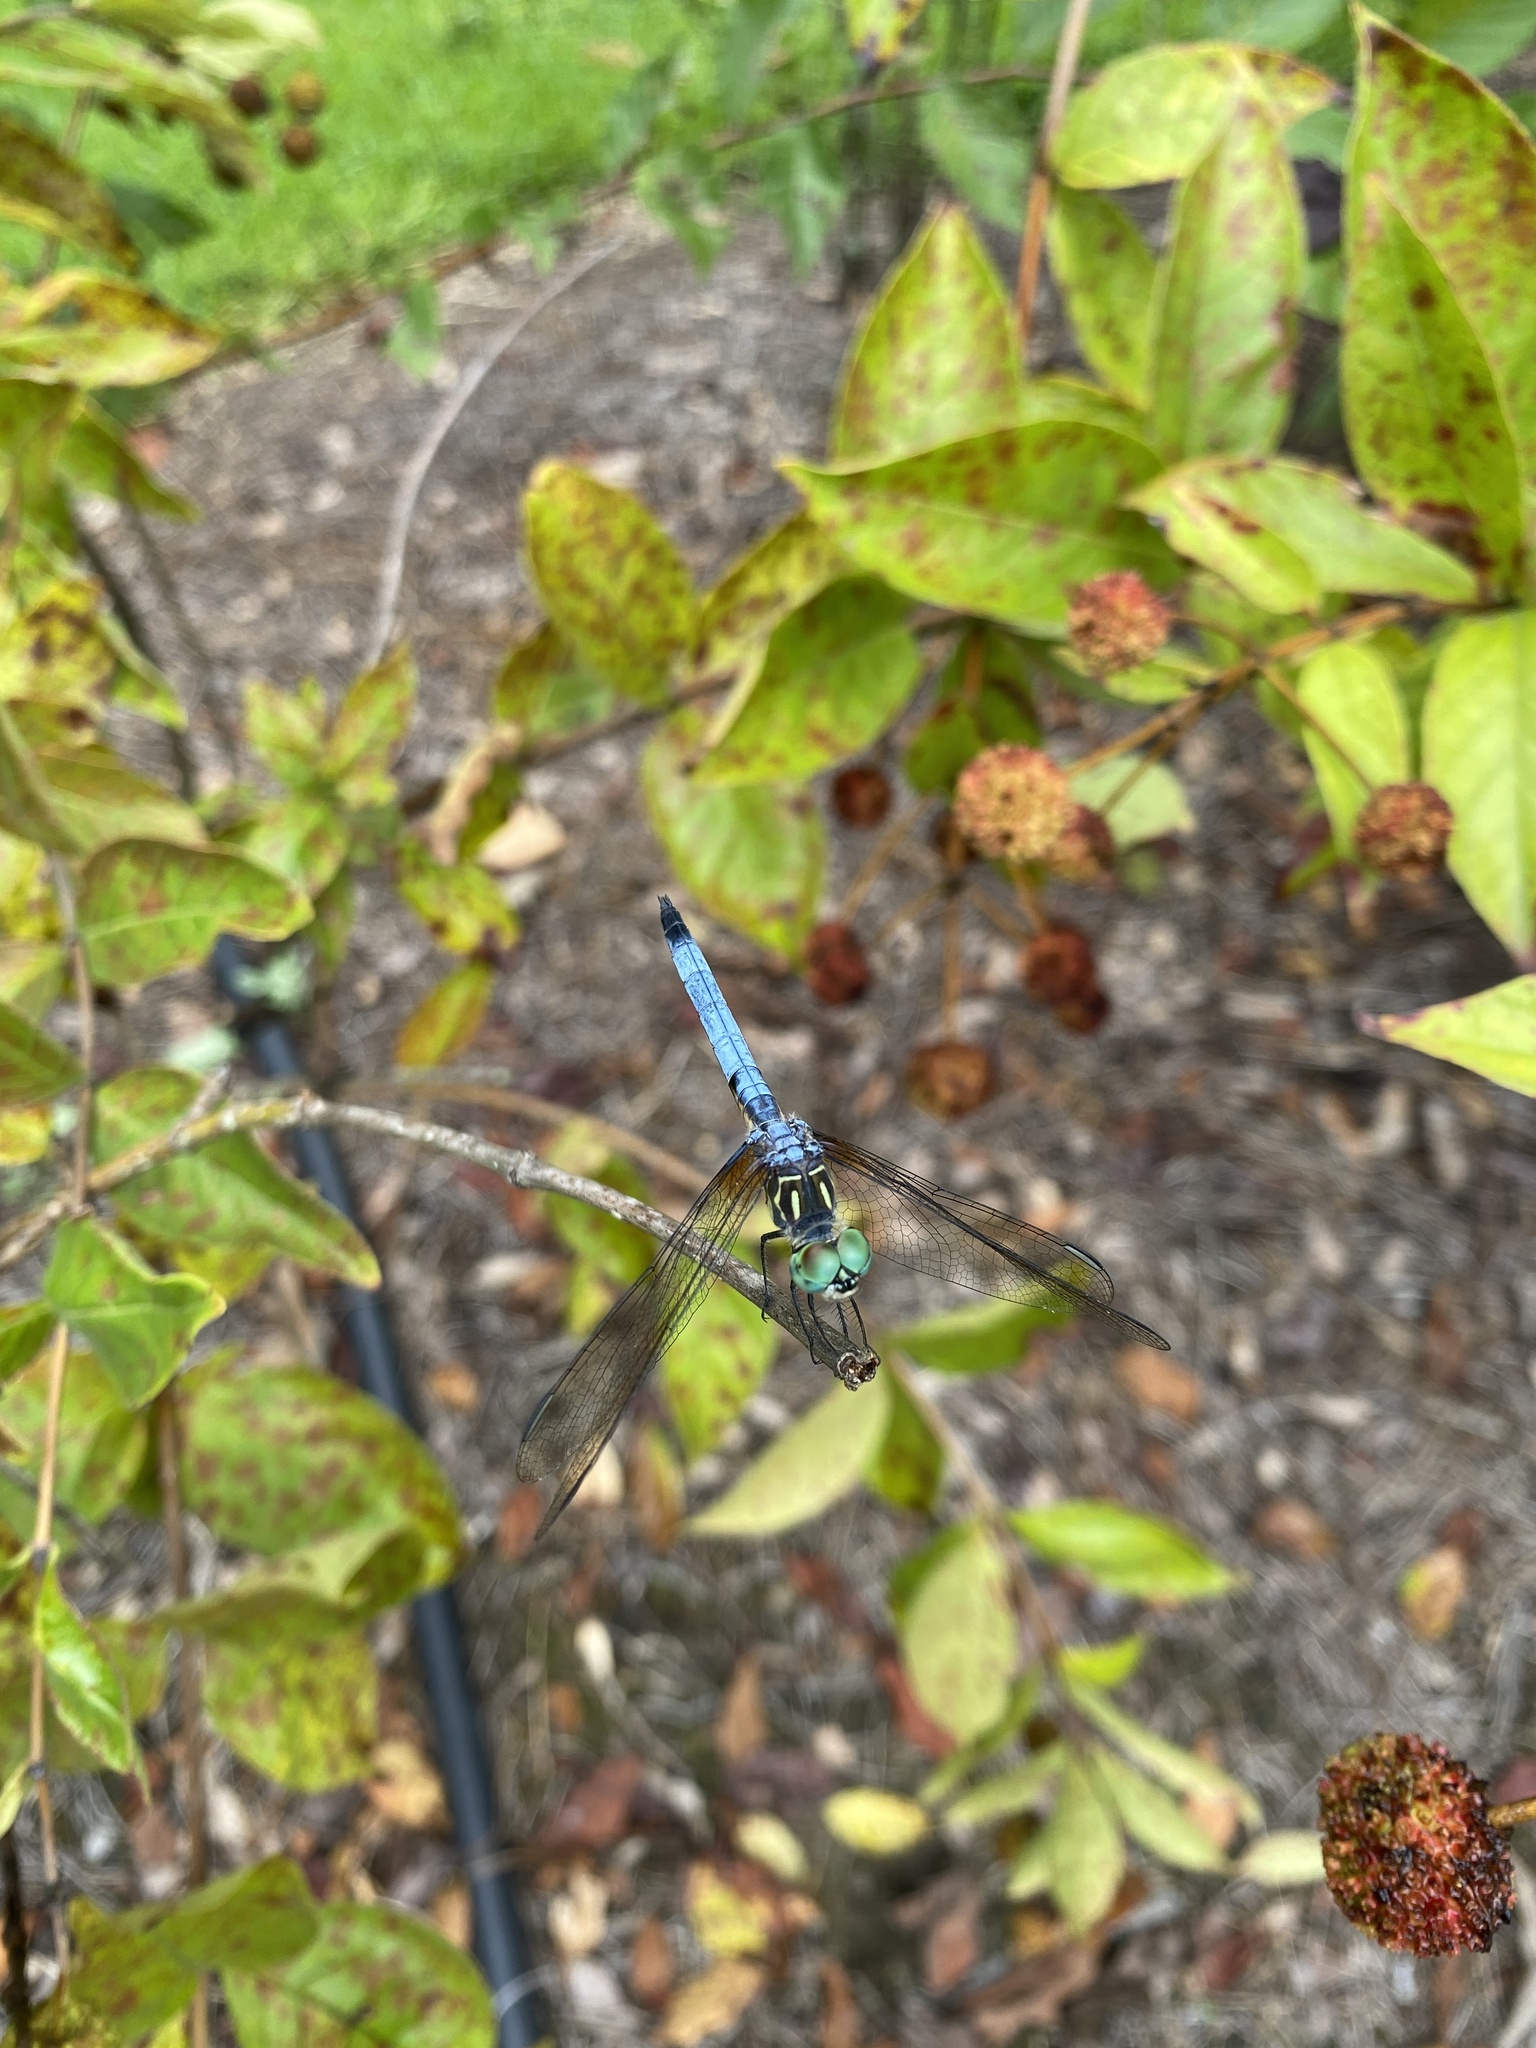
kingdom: Animalia
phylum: Arthropoda
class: Insecta
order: Odonata
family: Libellulidae
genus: Pachydiplax
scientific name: Pachydiplax longipennis
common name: Blue dasher
